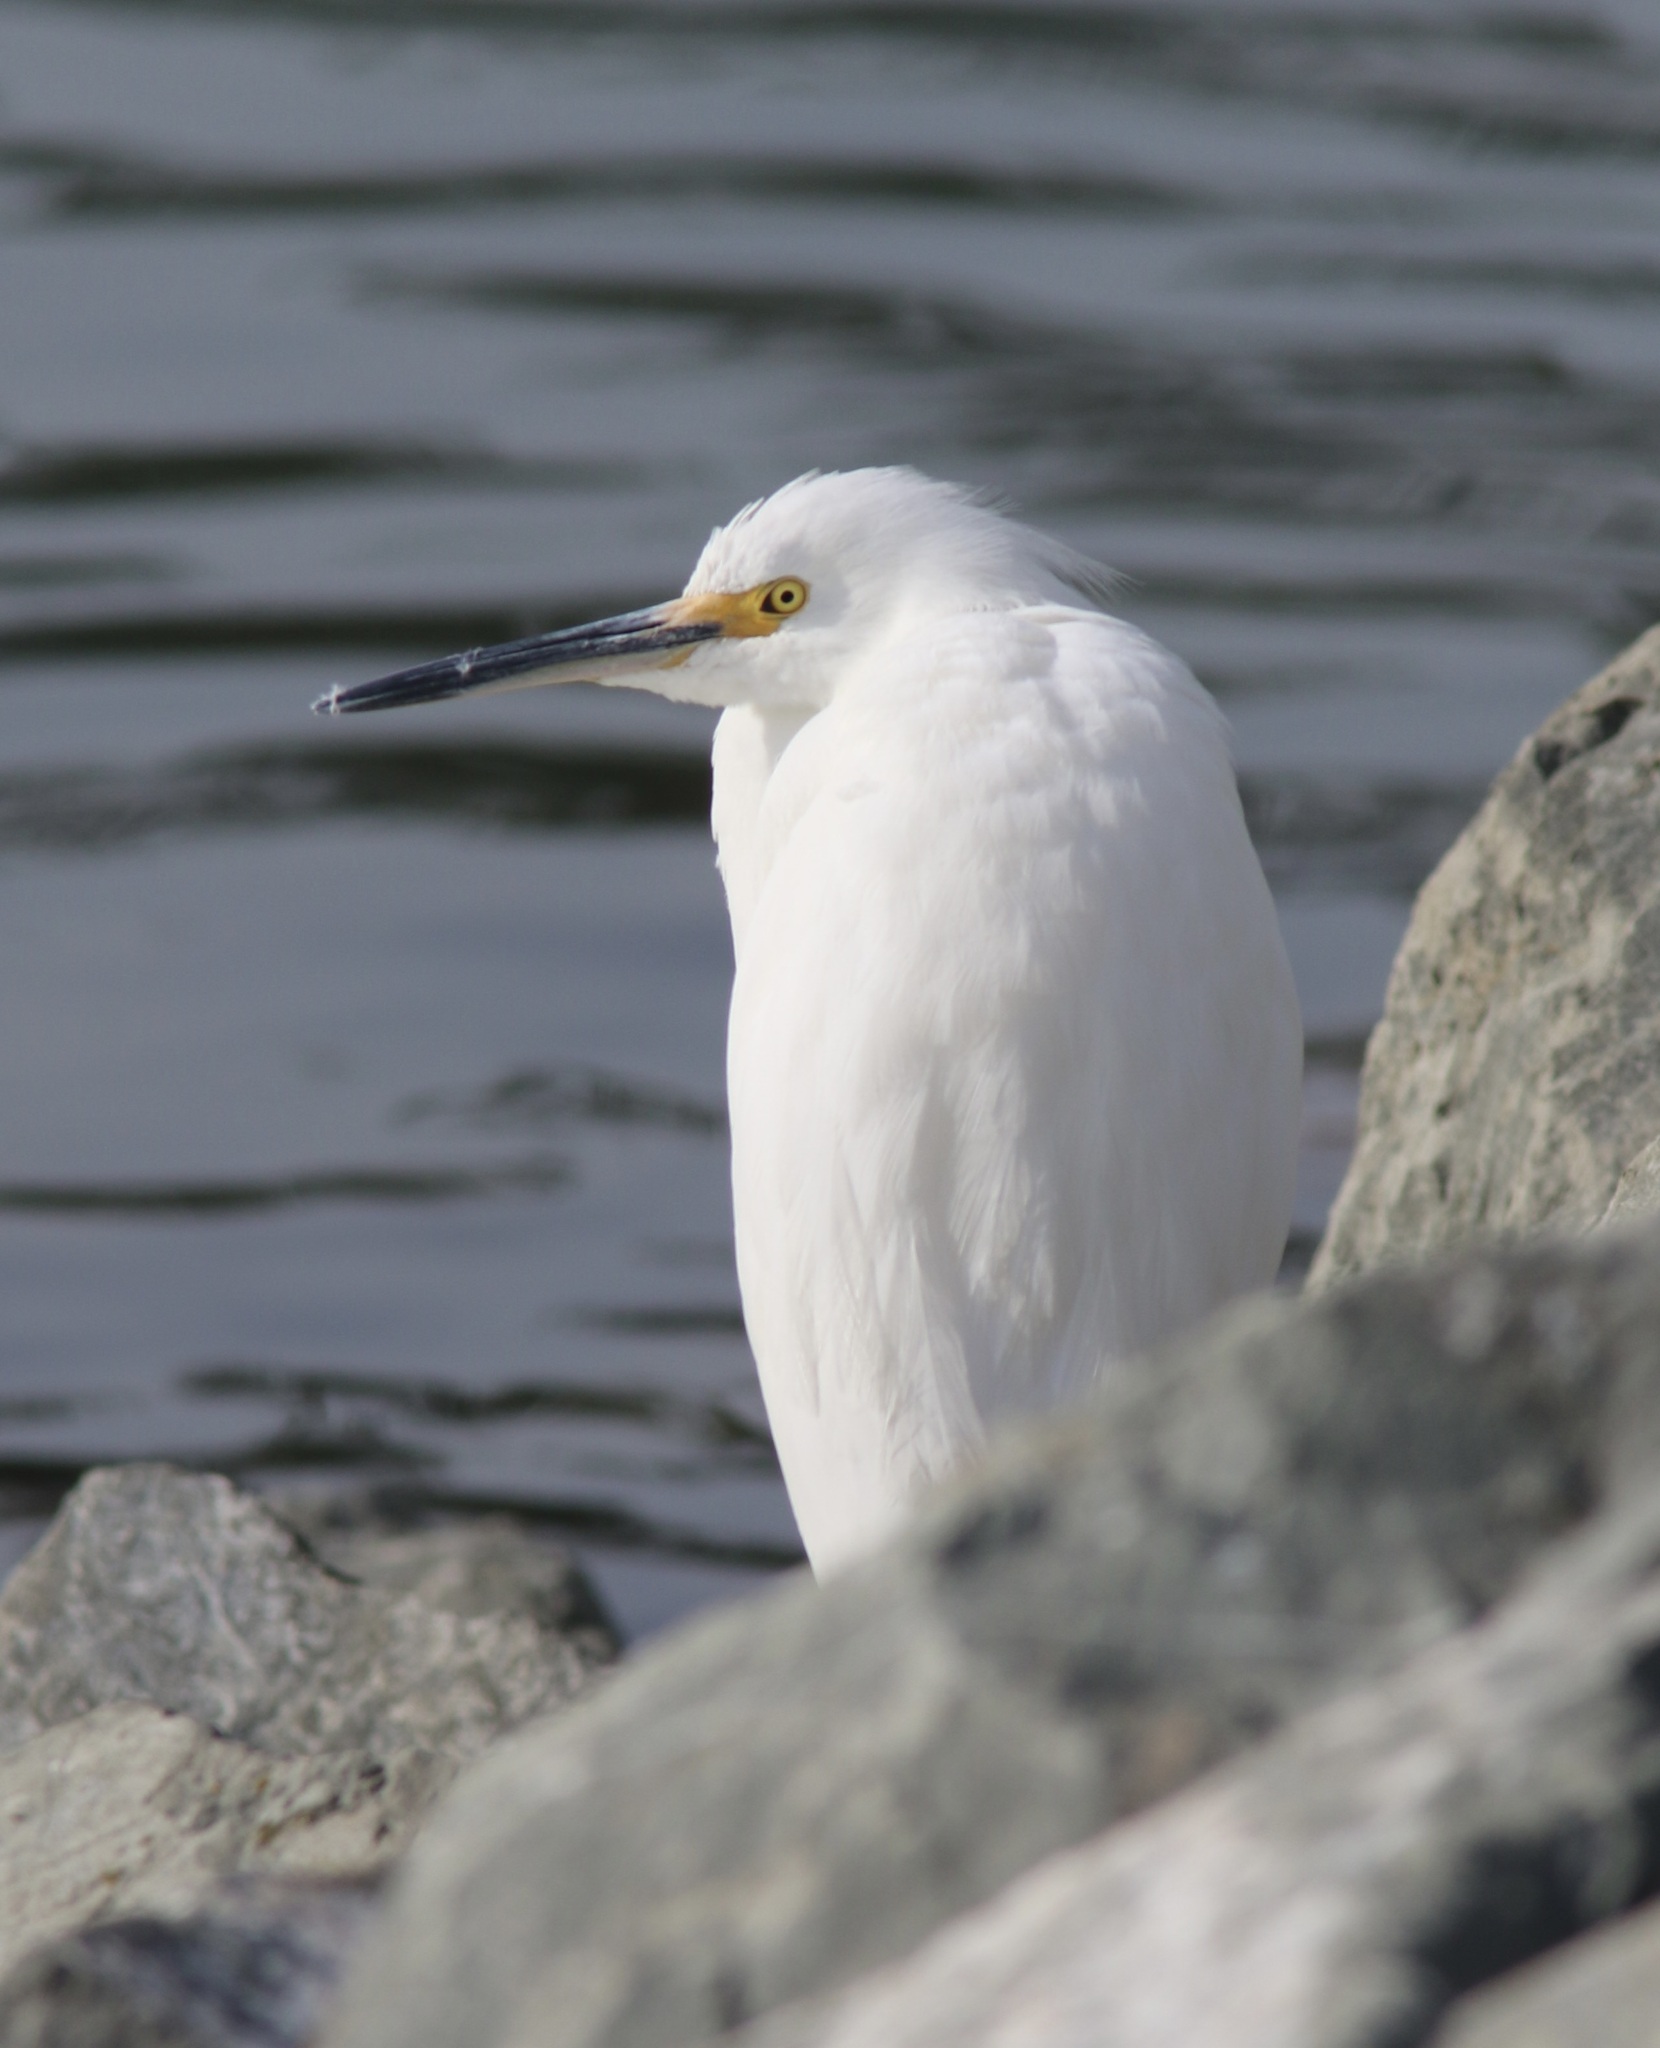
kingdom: Animalia
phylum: Chordata
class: Aves
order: Pelecaniformes
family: Ardeidae
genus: Egretta
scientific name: Egretta thula
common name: Snowy egret
